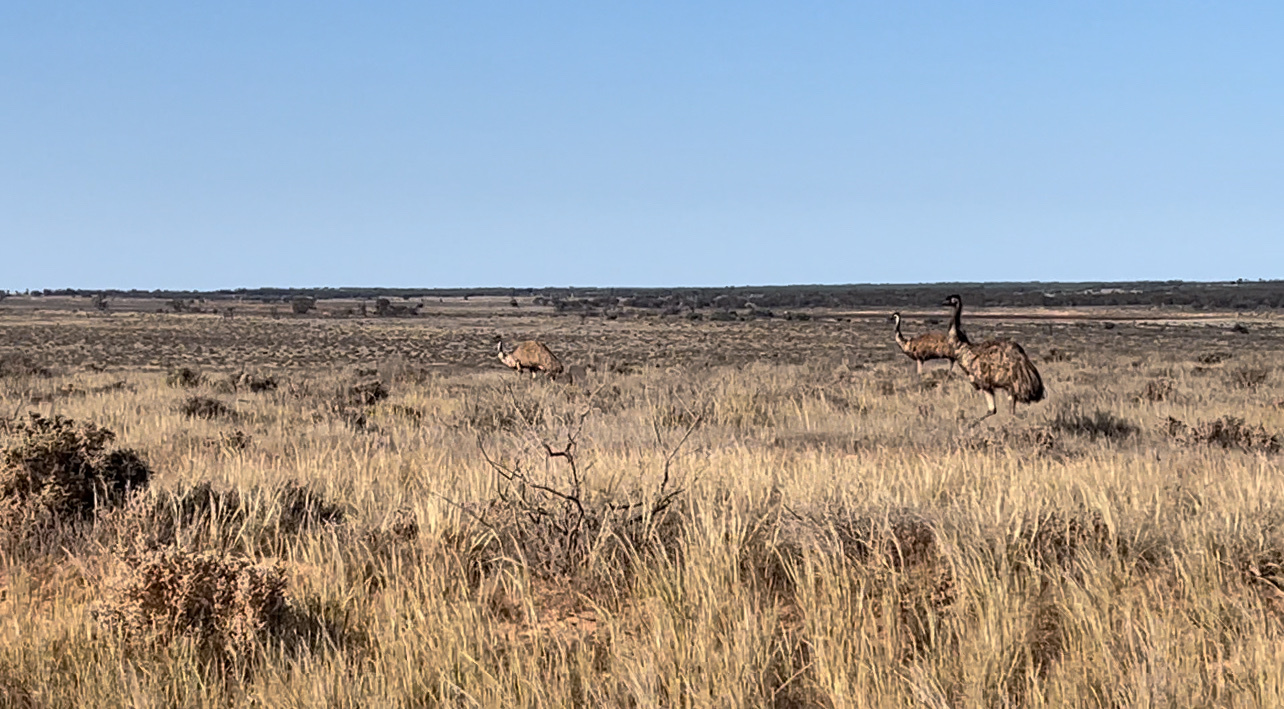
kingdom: Animalia
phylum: Chordata
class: Aves
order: Casuariiformes
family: Dromaiidae
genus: Dromaius
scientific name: Dromaius novaehollandiae
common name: Emu
